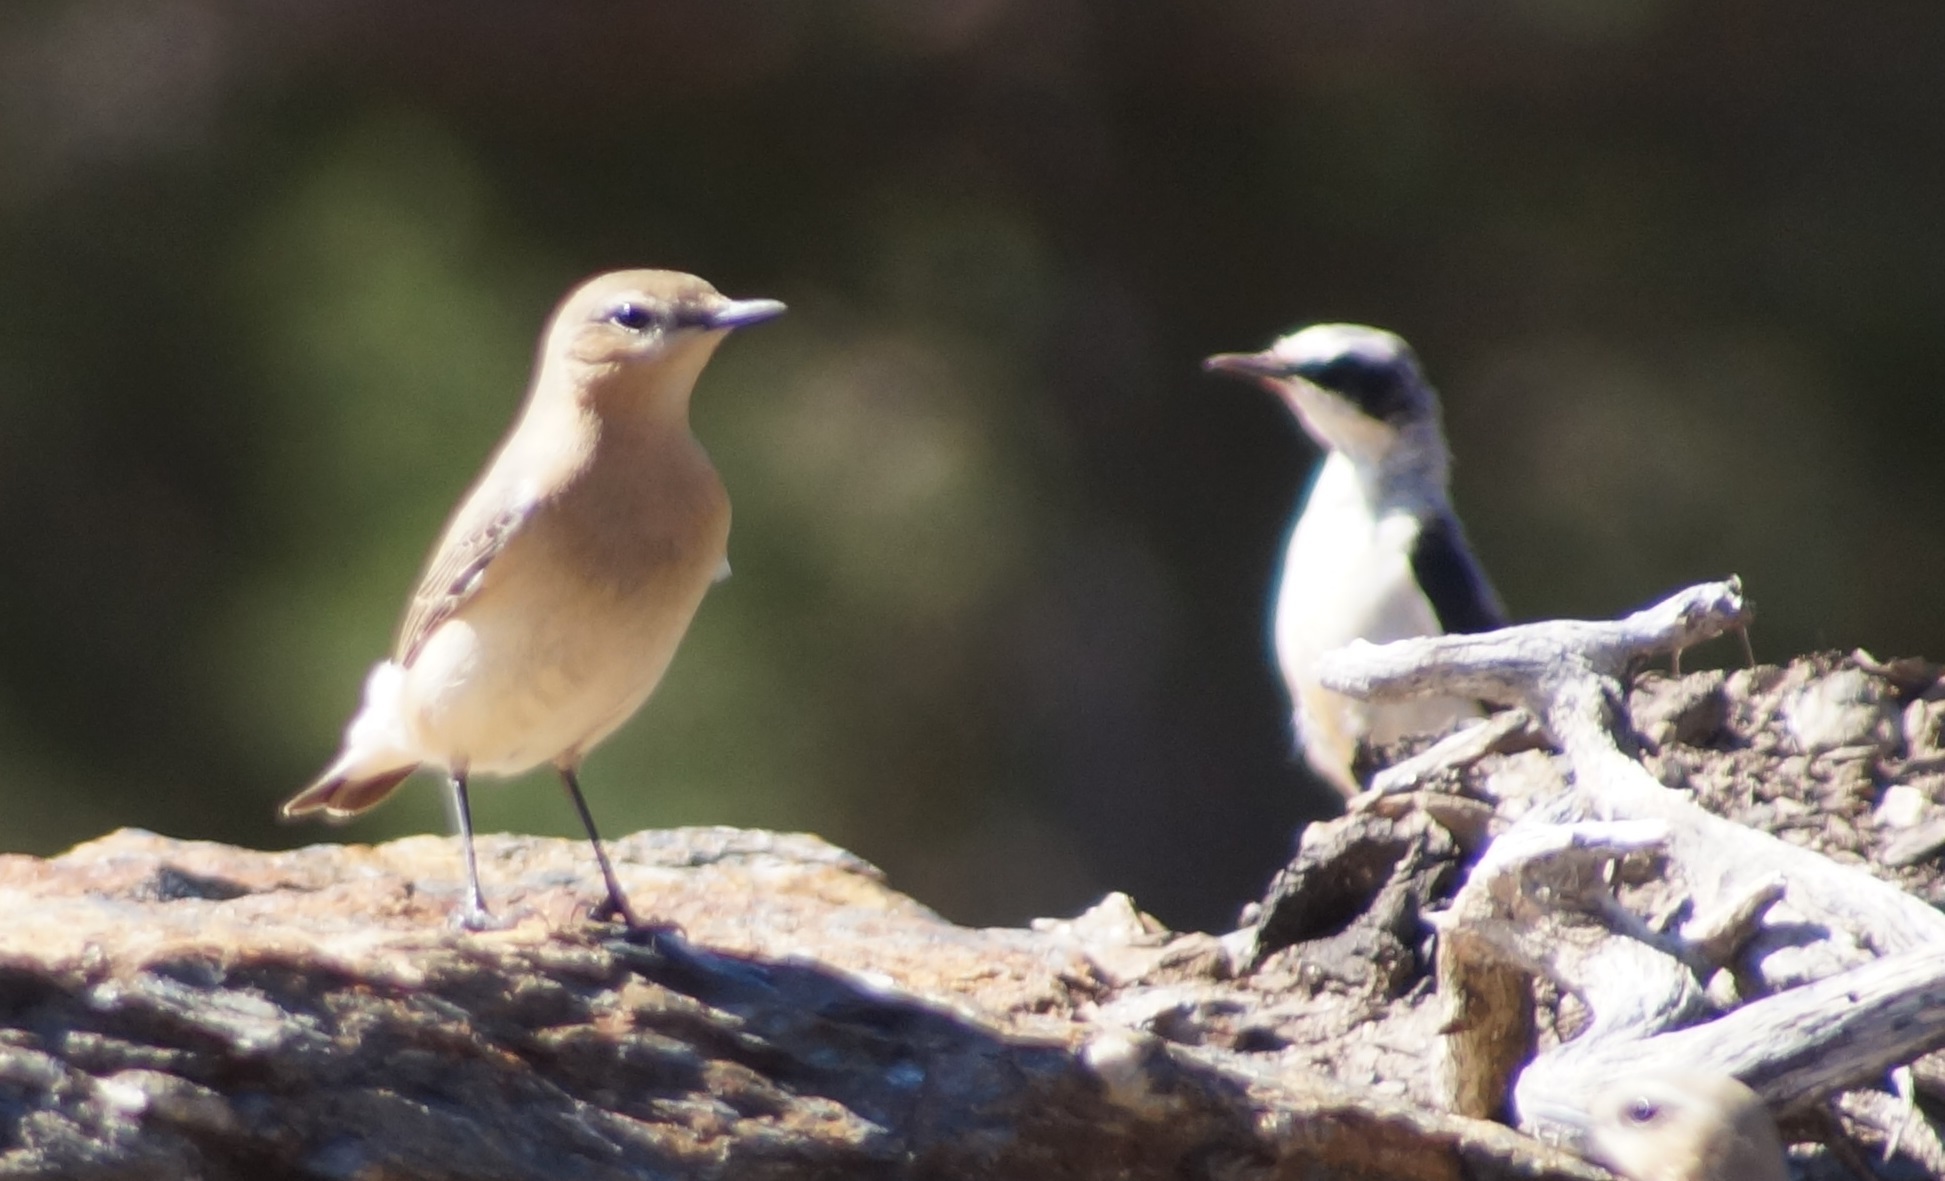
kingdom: Animalia
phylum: Chordata
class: Aves
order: Passeriformes
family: Muscicapidae
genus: Oenanthe
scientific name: Oenanthe oenanthe
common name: Northern wheatear
